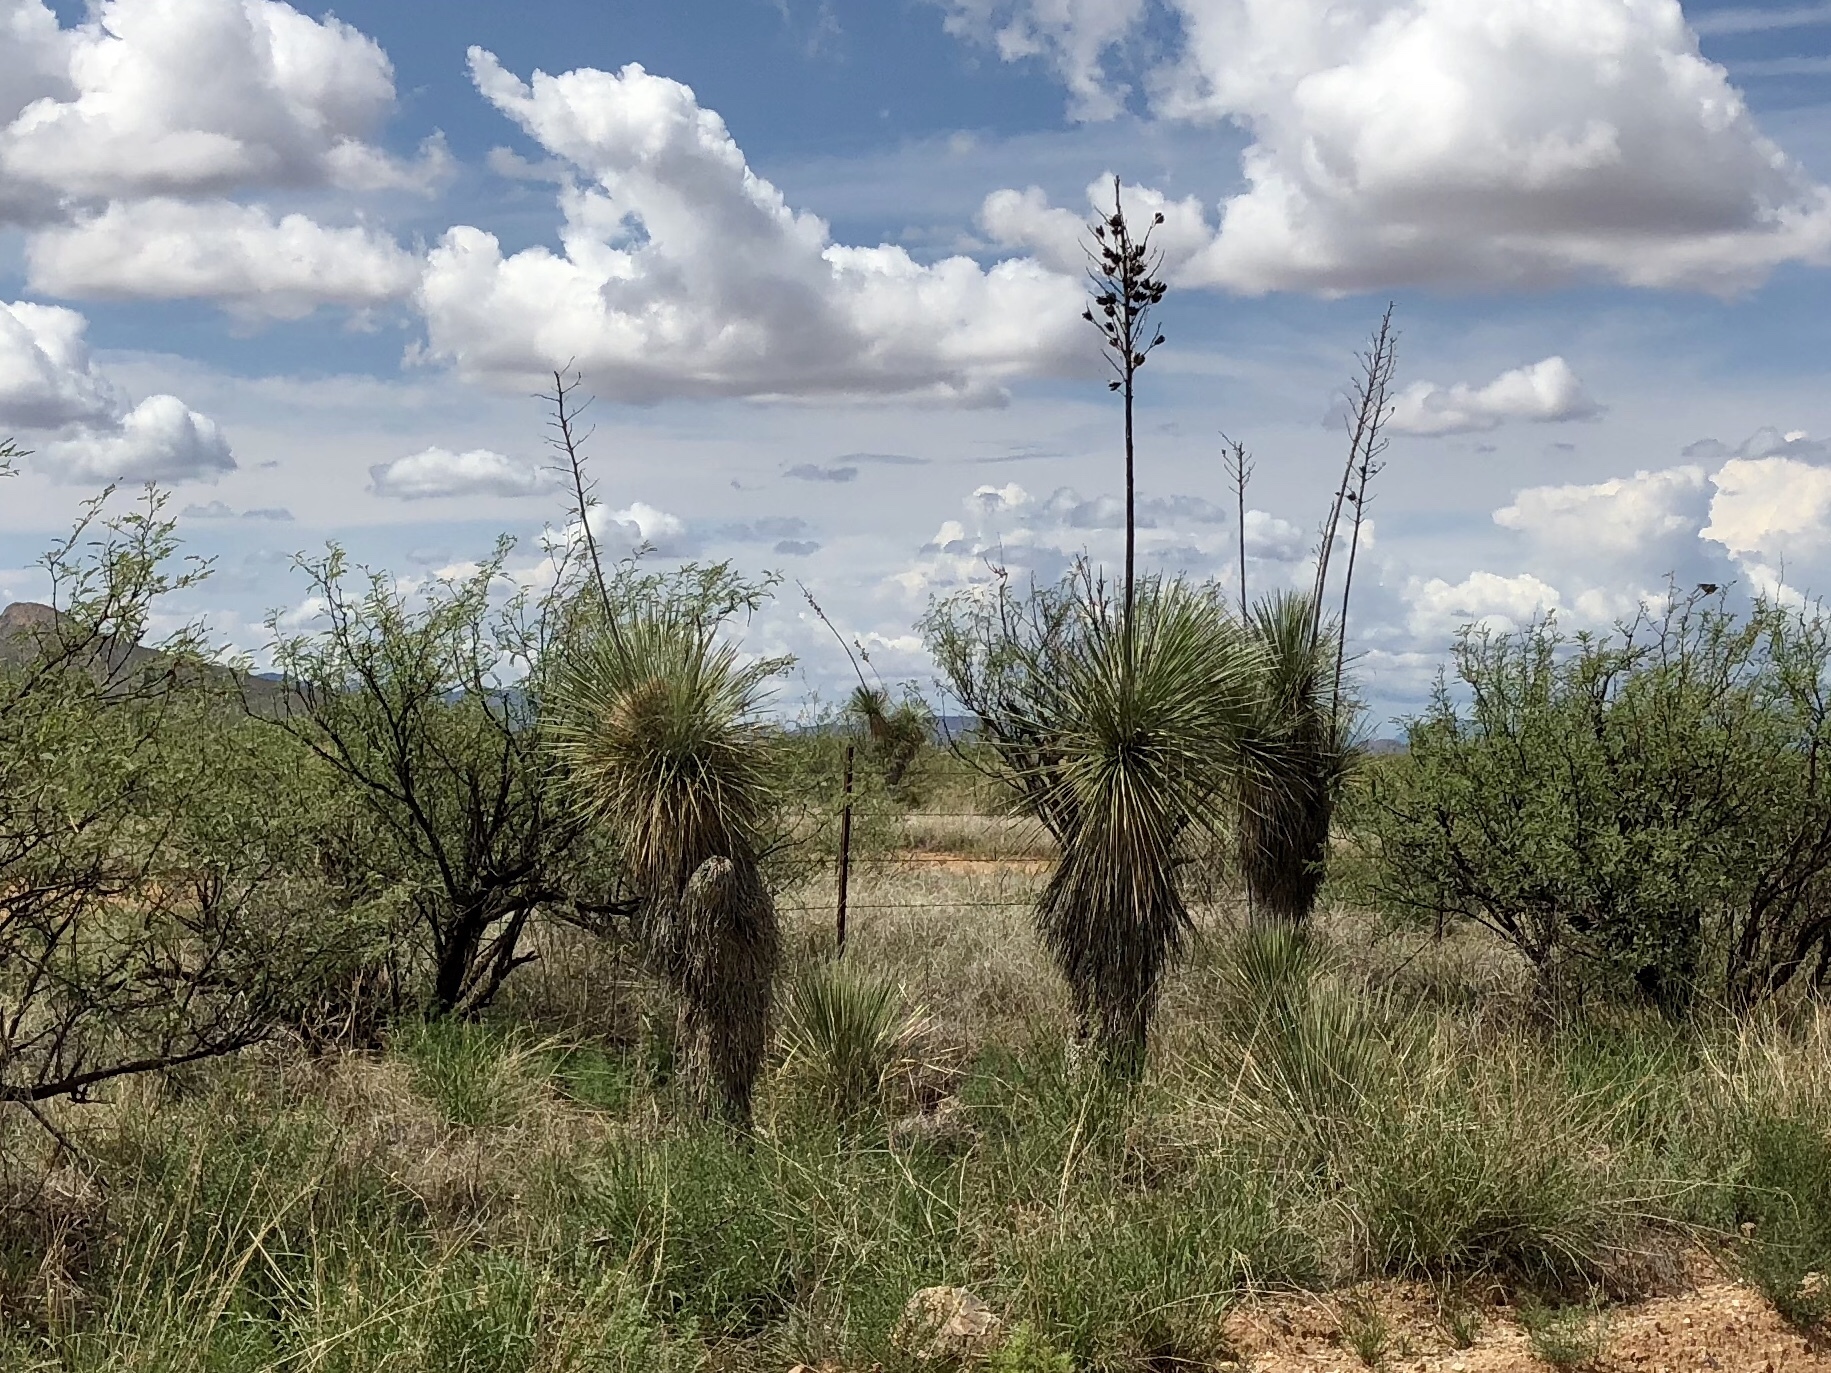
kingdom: Plantae
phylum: Tracheophyta
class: Liliopsida
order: Asparagales
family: Asparagaceae
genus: Yucca
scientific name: Yucca elata
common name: Palmella
